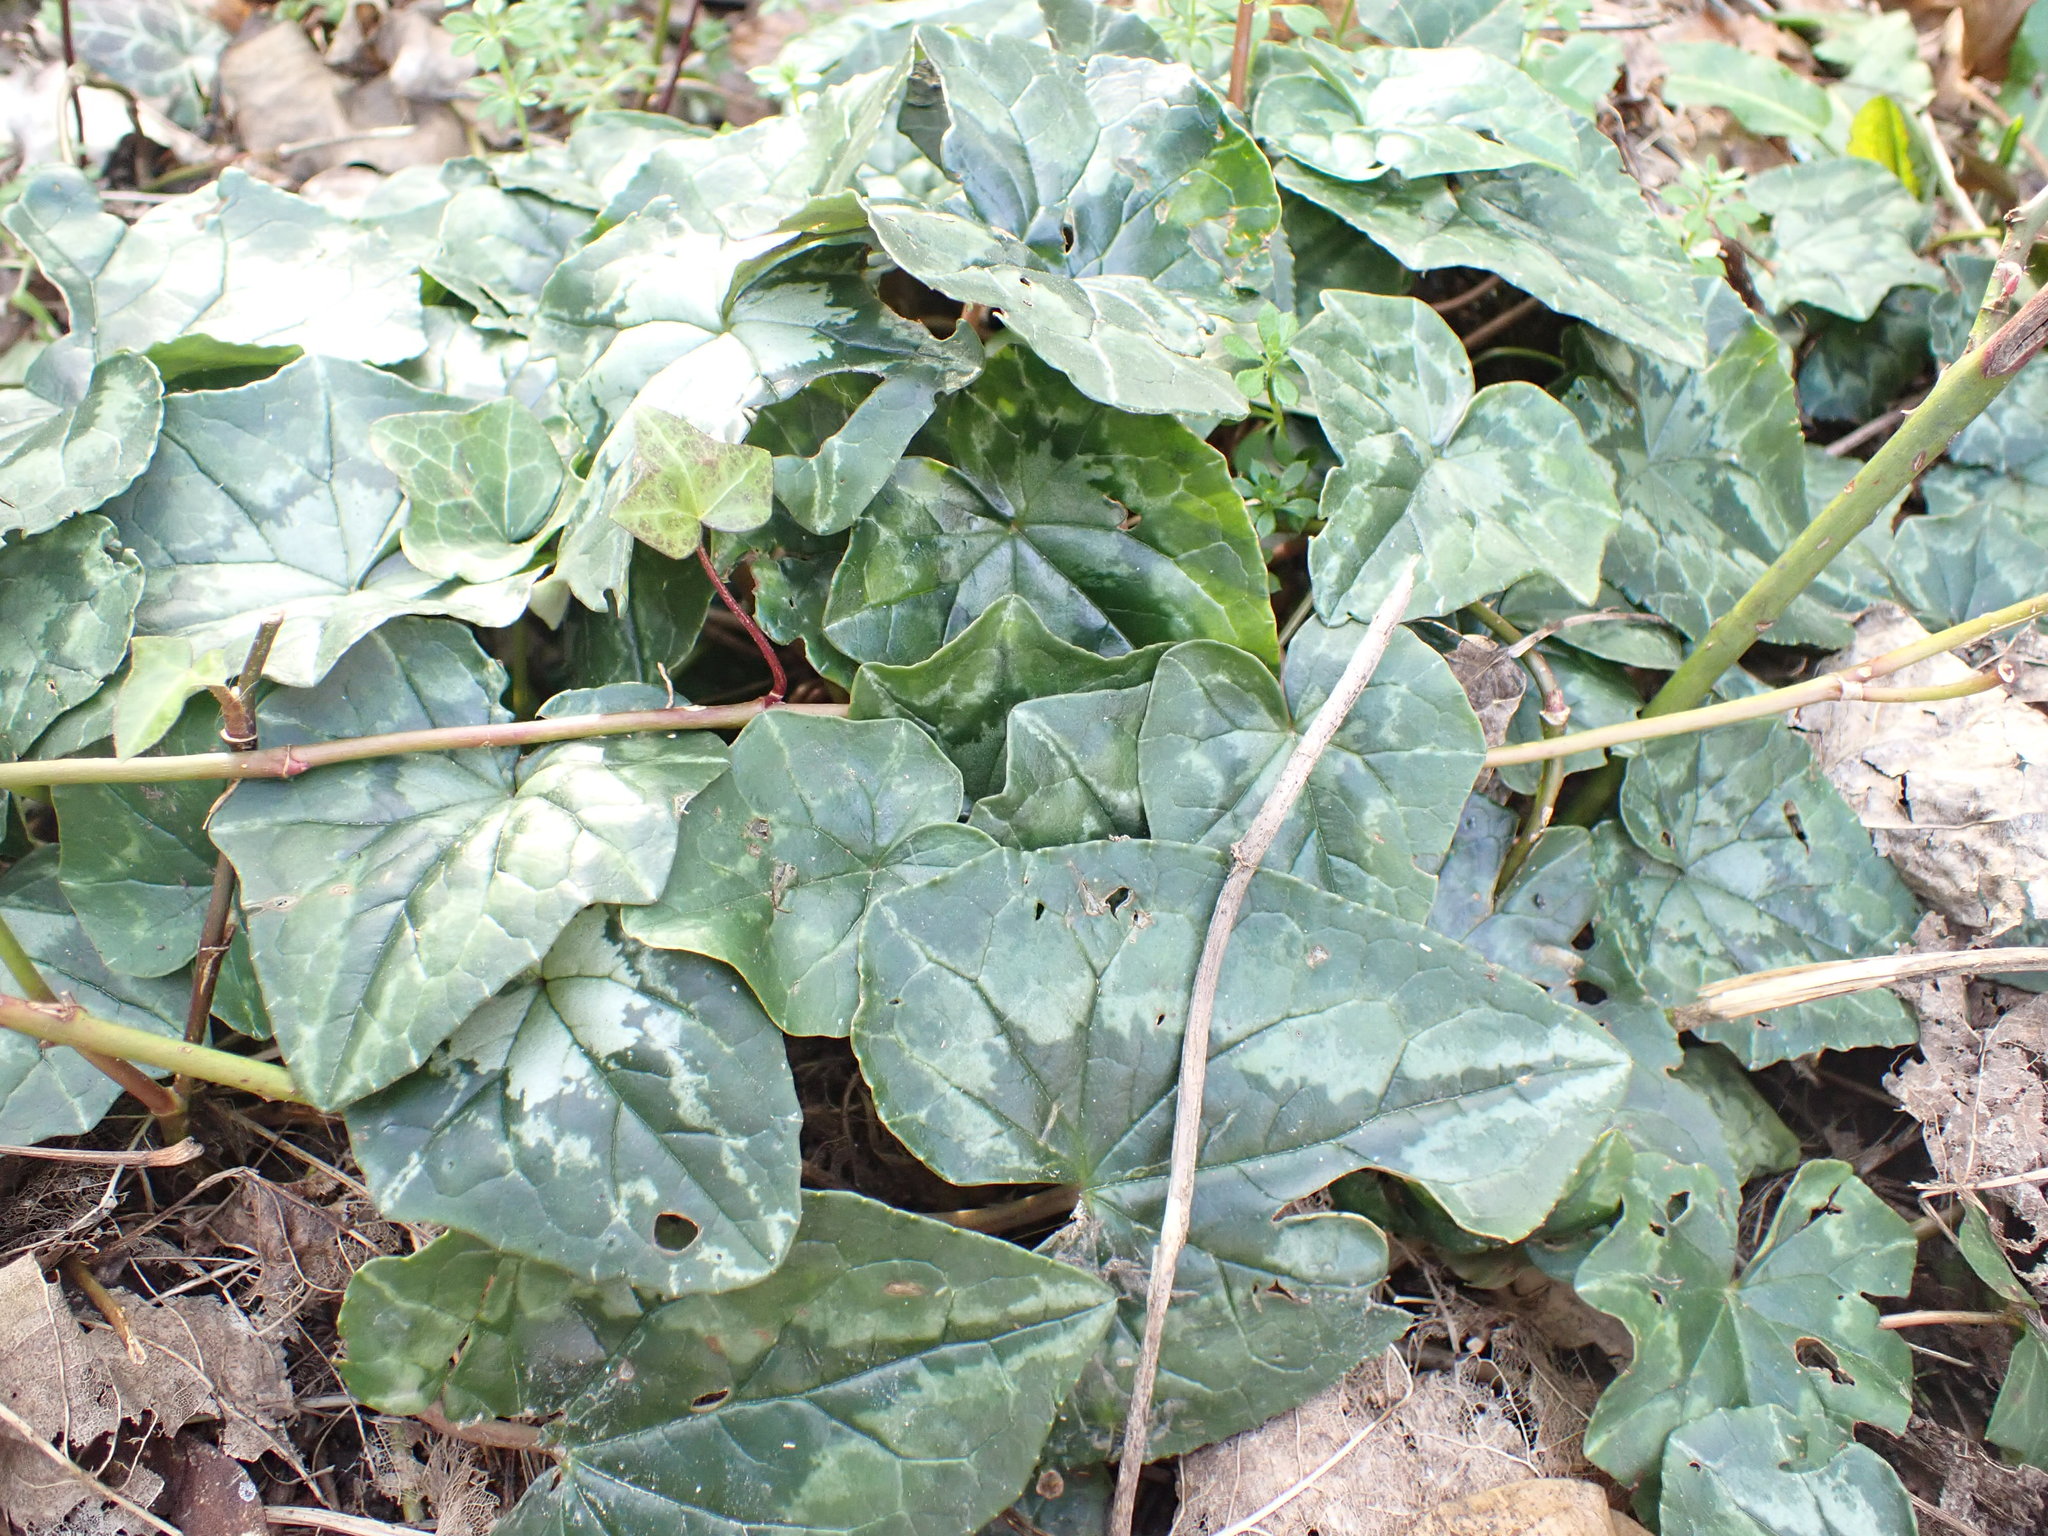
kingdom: Plantae
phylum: Tracheophyta
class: Magnoliopsida
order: Ericales
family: Primulaceae
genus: Cyclamen
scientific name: Cyclamen hederifolium
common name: Sowbread
